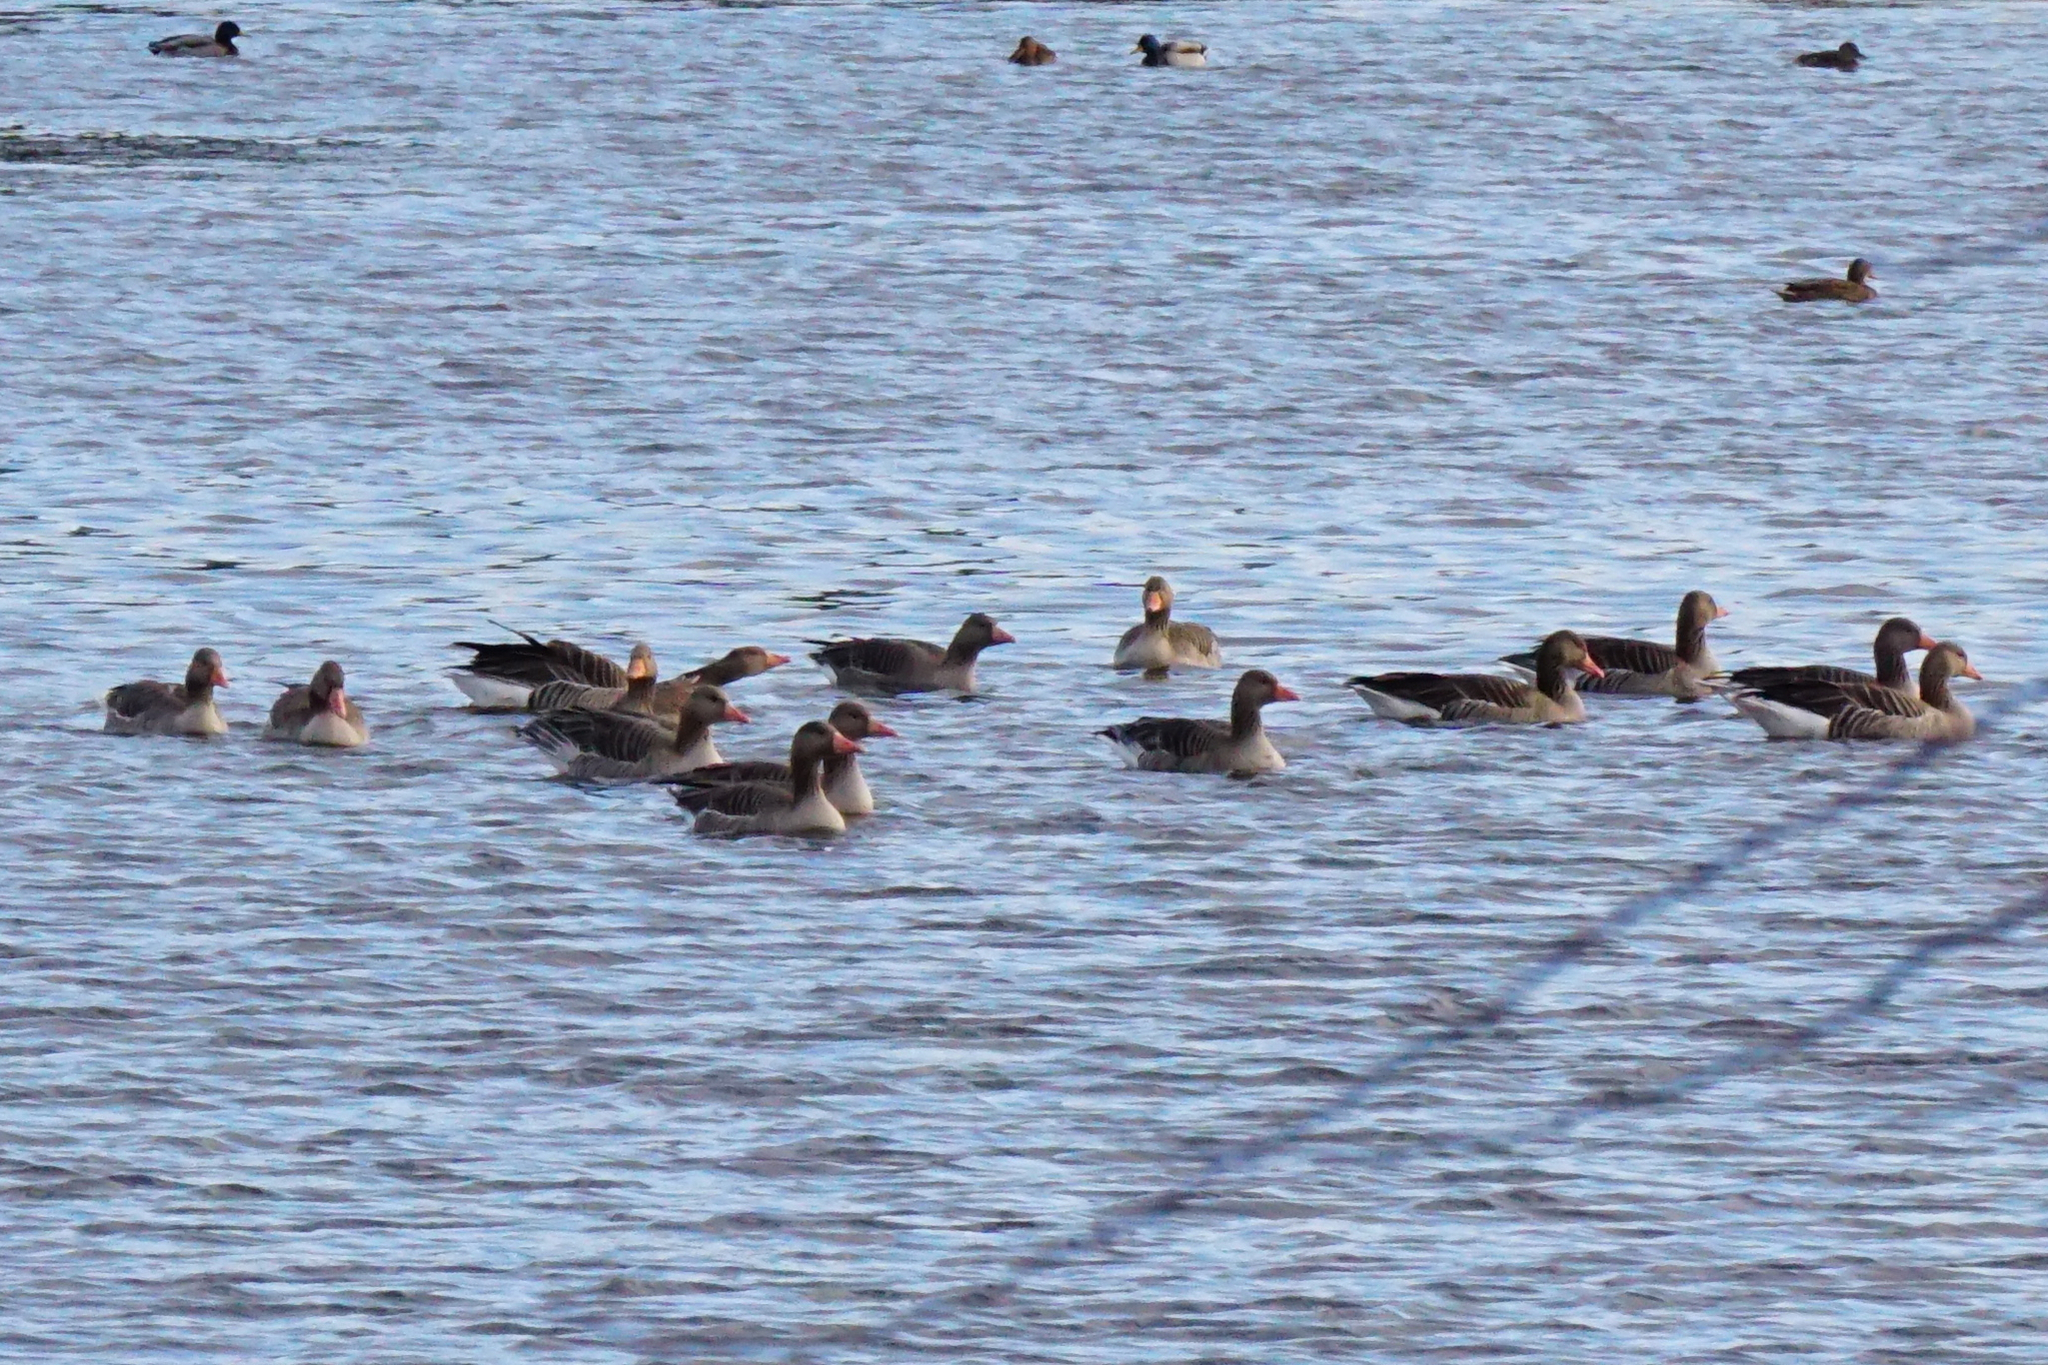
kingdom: Animalia
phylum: Chordata
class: Aves
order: Anseriformes
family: Anatidae
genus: Anser
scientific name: Anser anser
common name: Greylag goose
